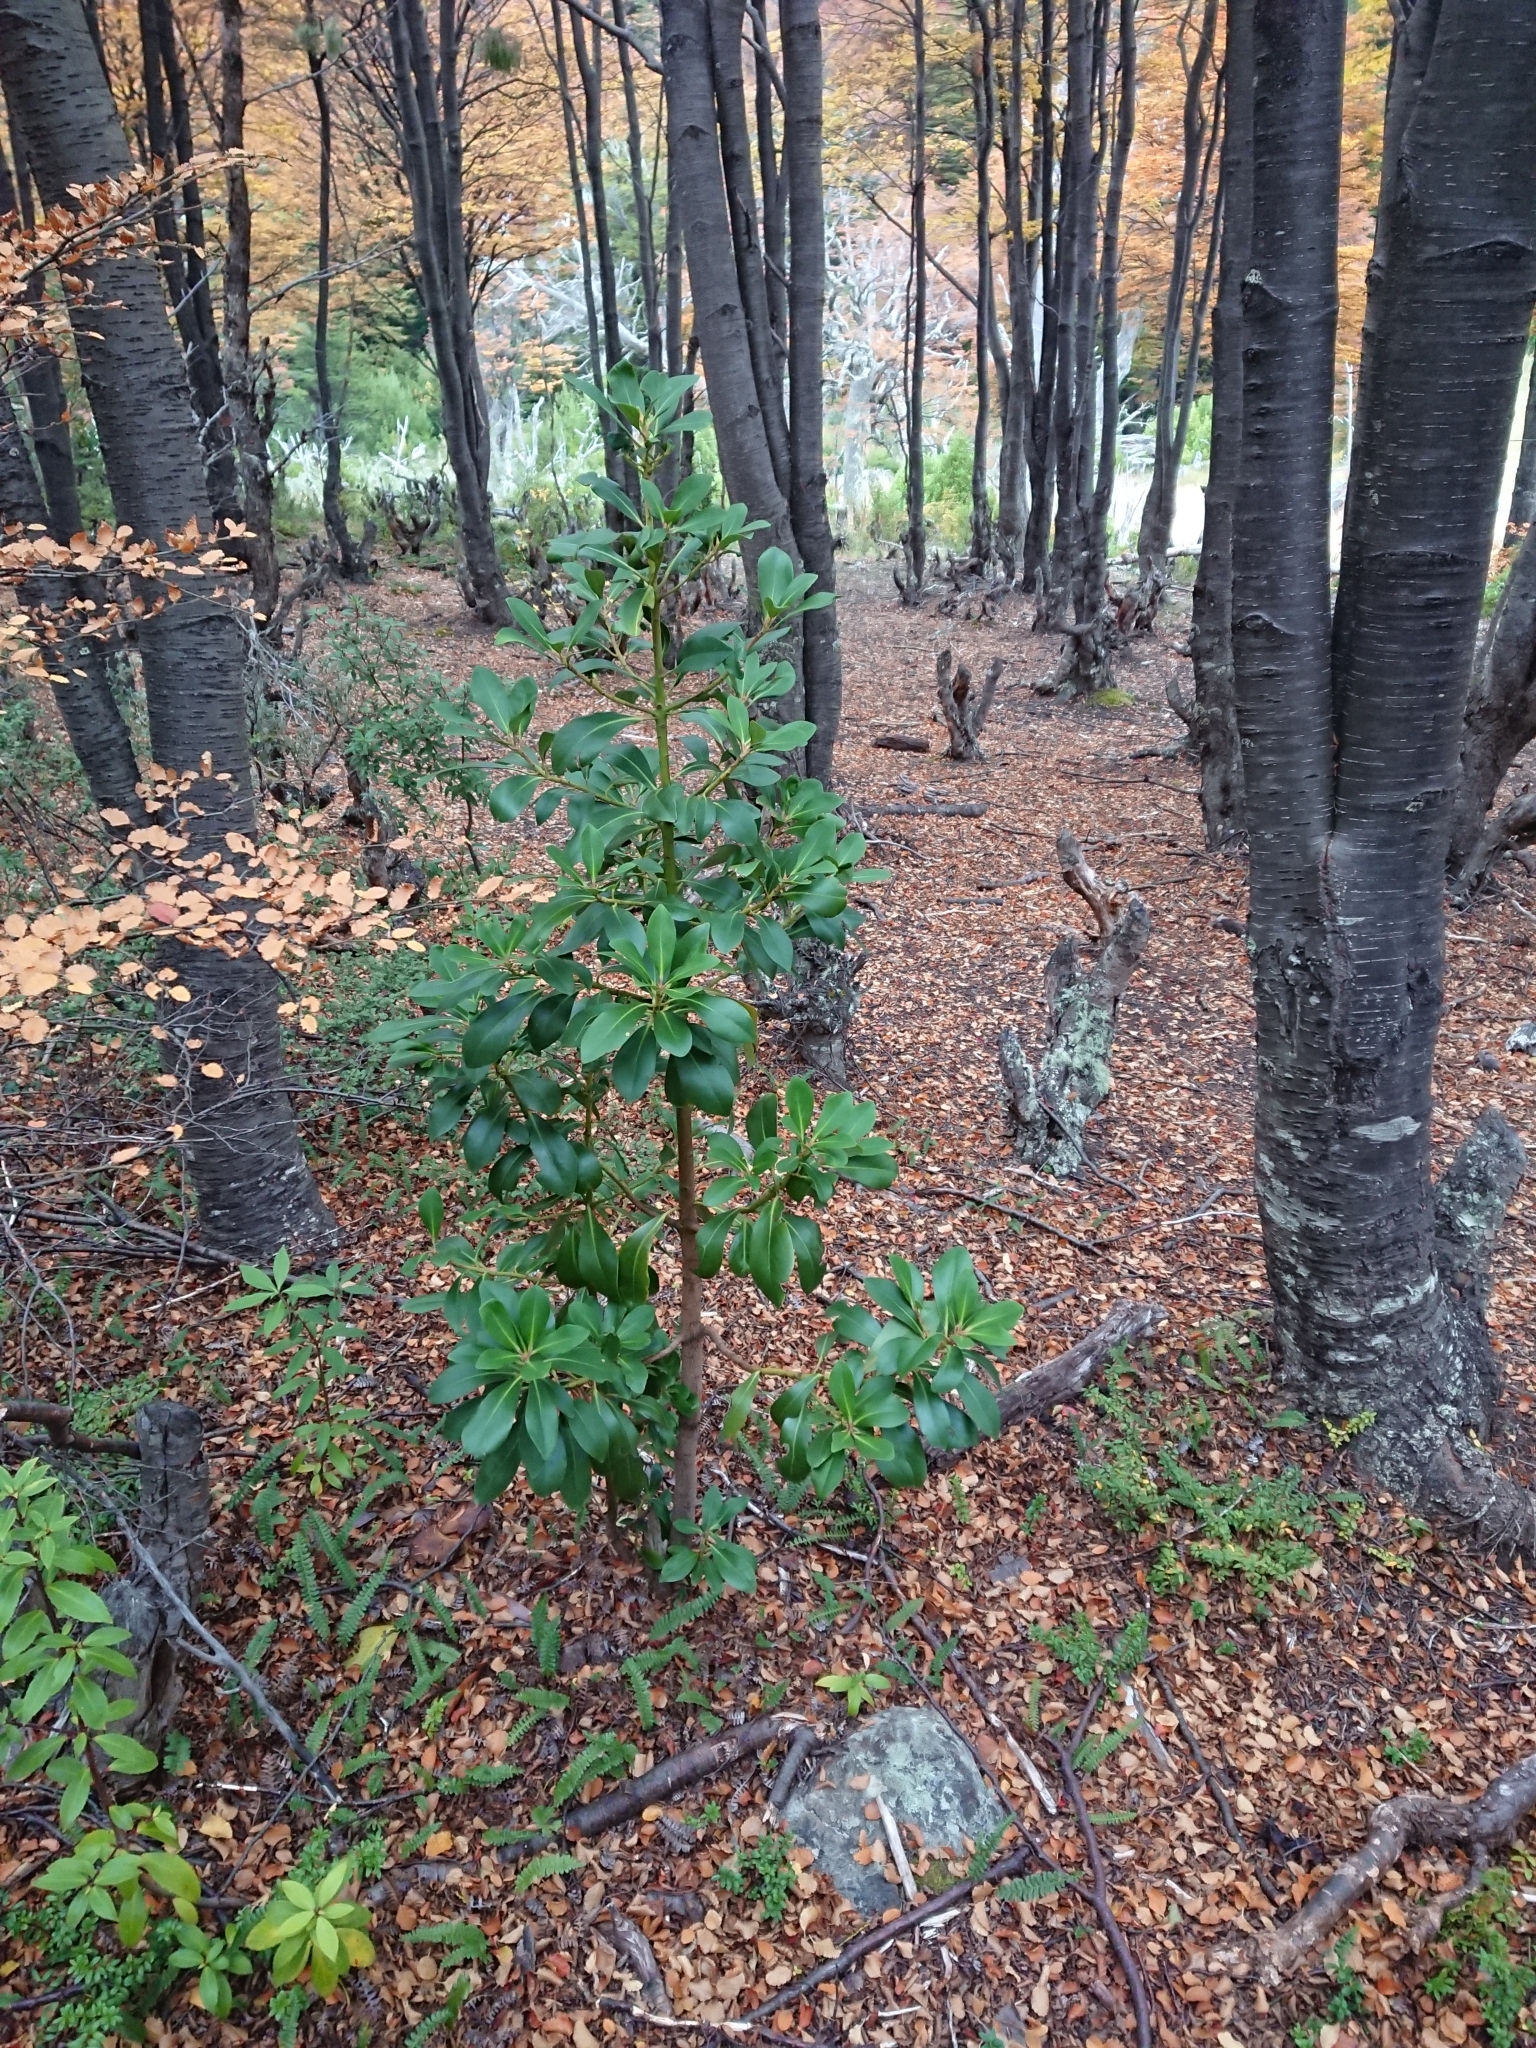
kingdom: Plantae
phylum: Tracheophyta
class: Magnoliopsida
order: Canellales
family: Winteraceae
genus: Drimys
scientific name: Drimys winteri
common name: Winter's-bark
